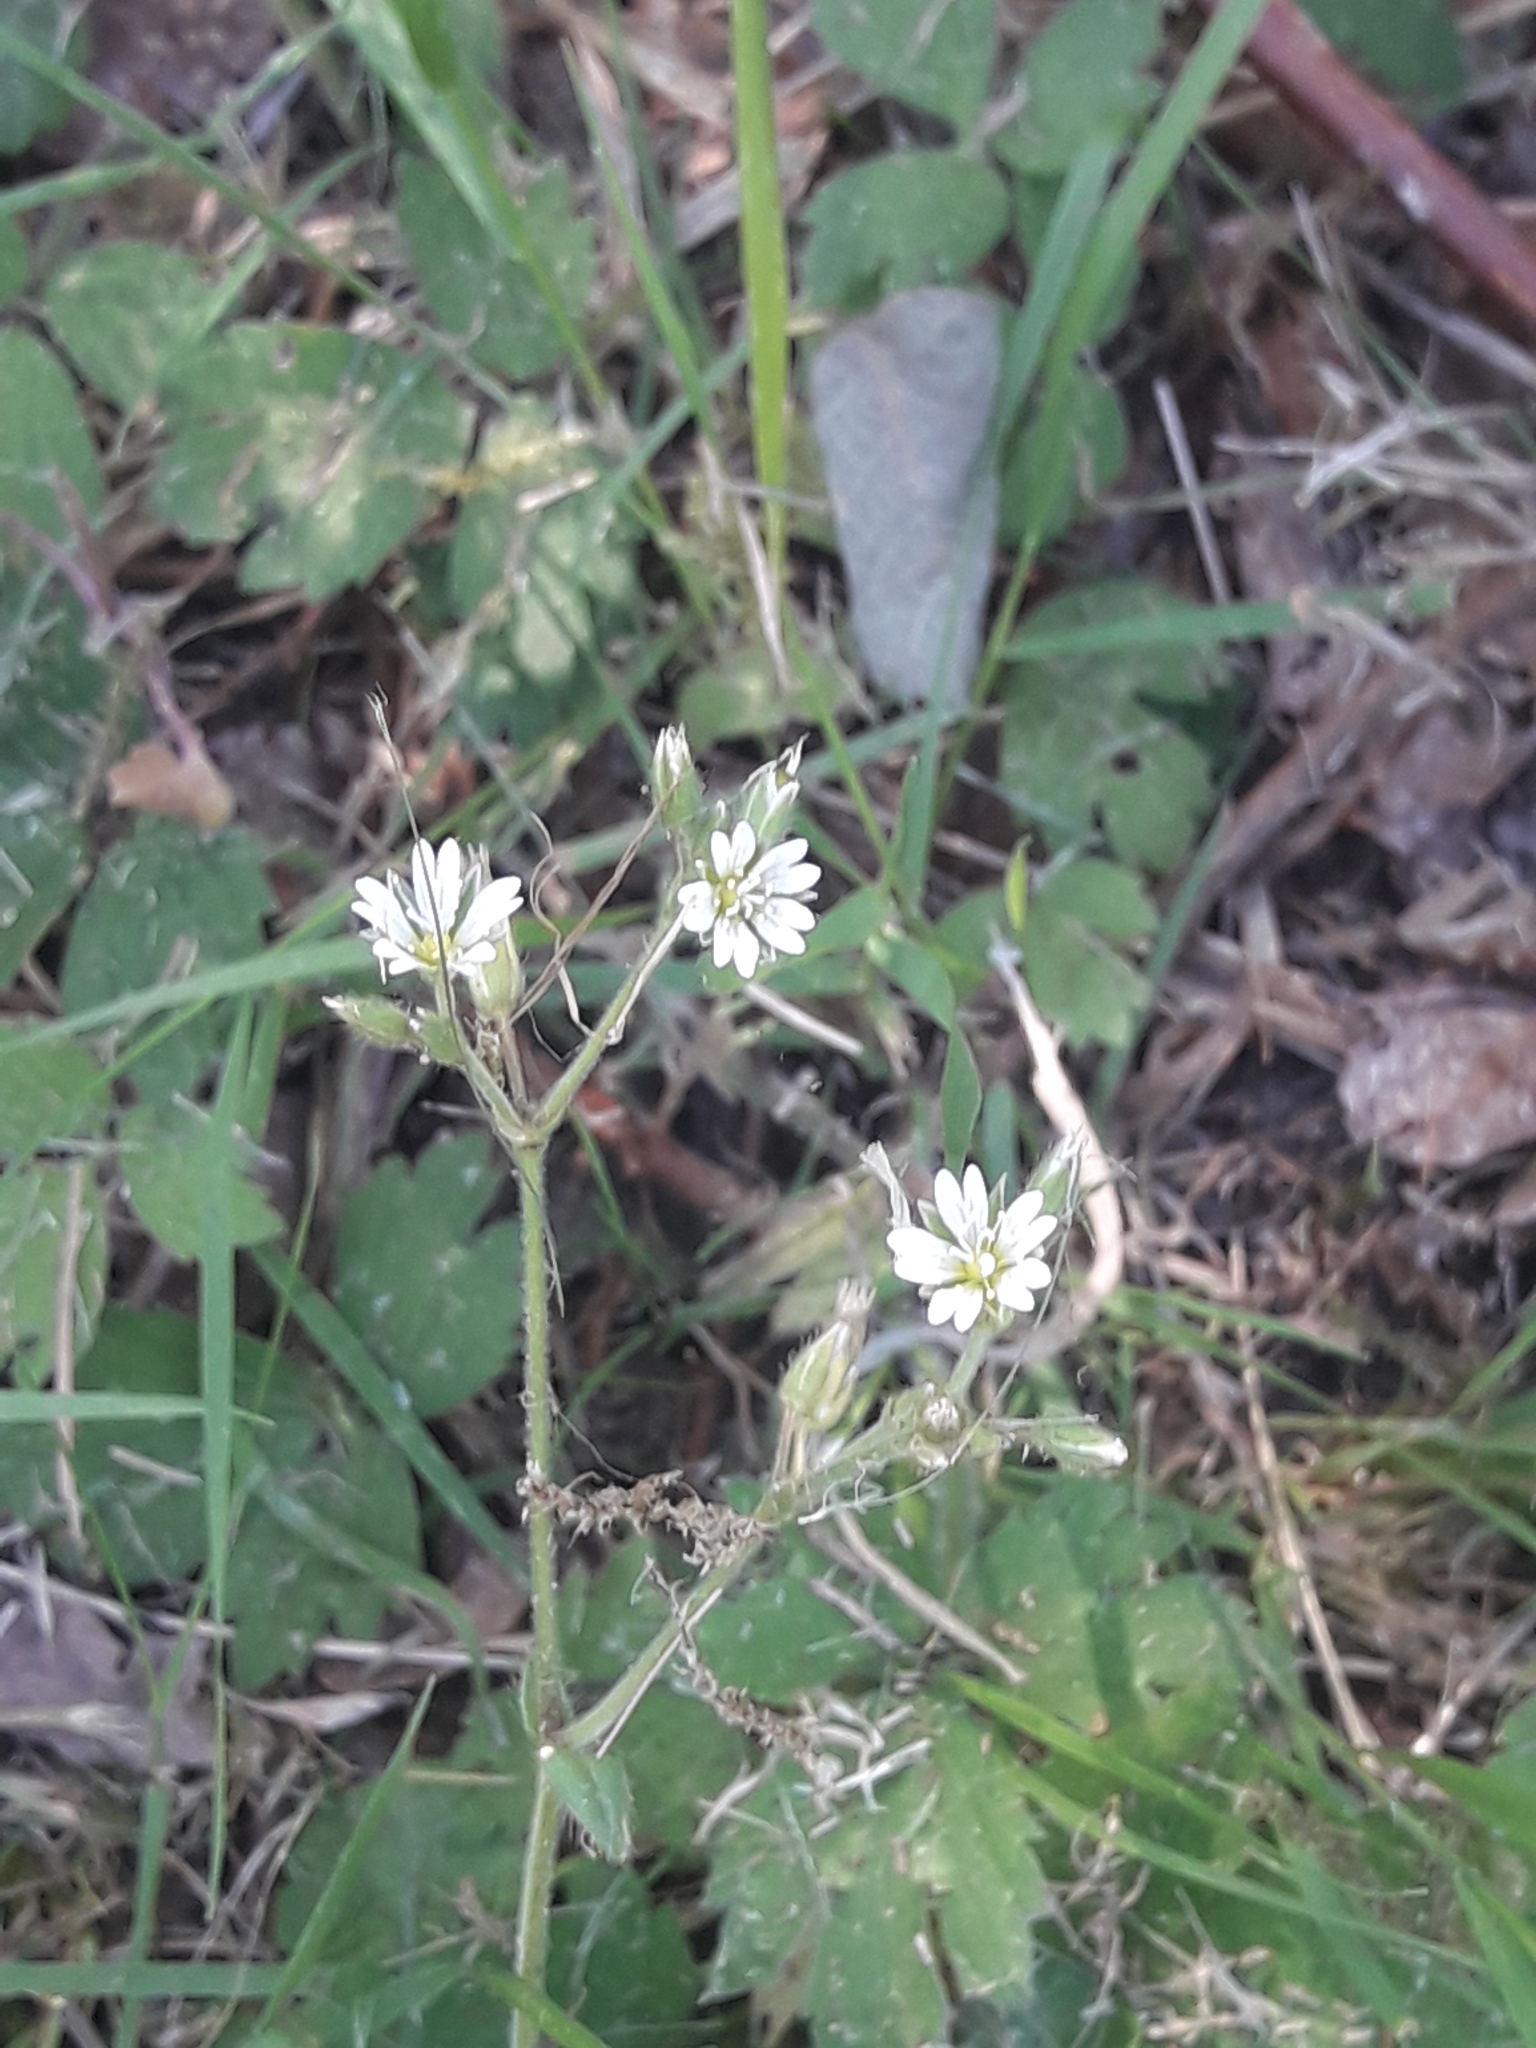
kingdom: Plantae
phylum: Tracheophyta
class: Magnoliopsida
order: Caryophyllales
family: Caryophyllaceae
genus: Cerastium
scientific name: Cerastium fontanum
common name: Common mouse-ear
